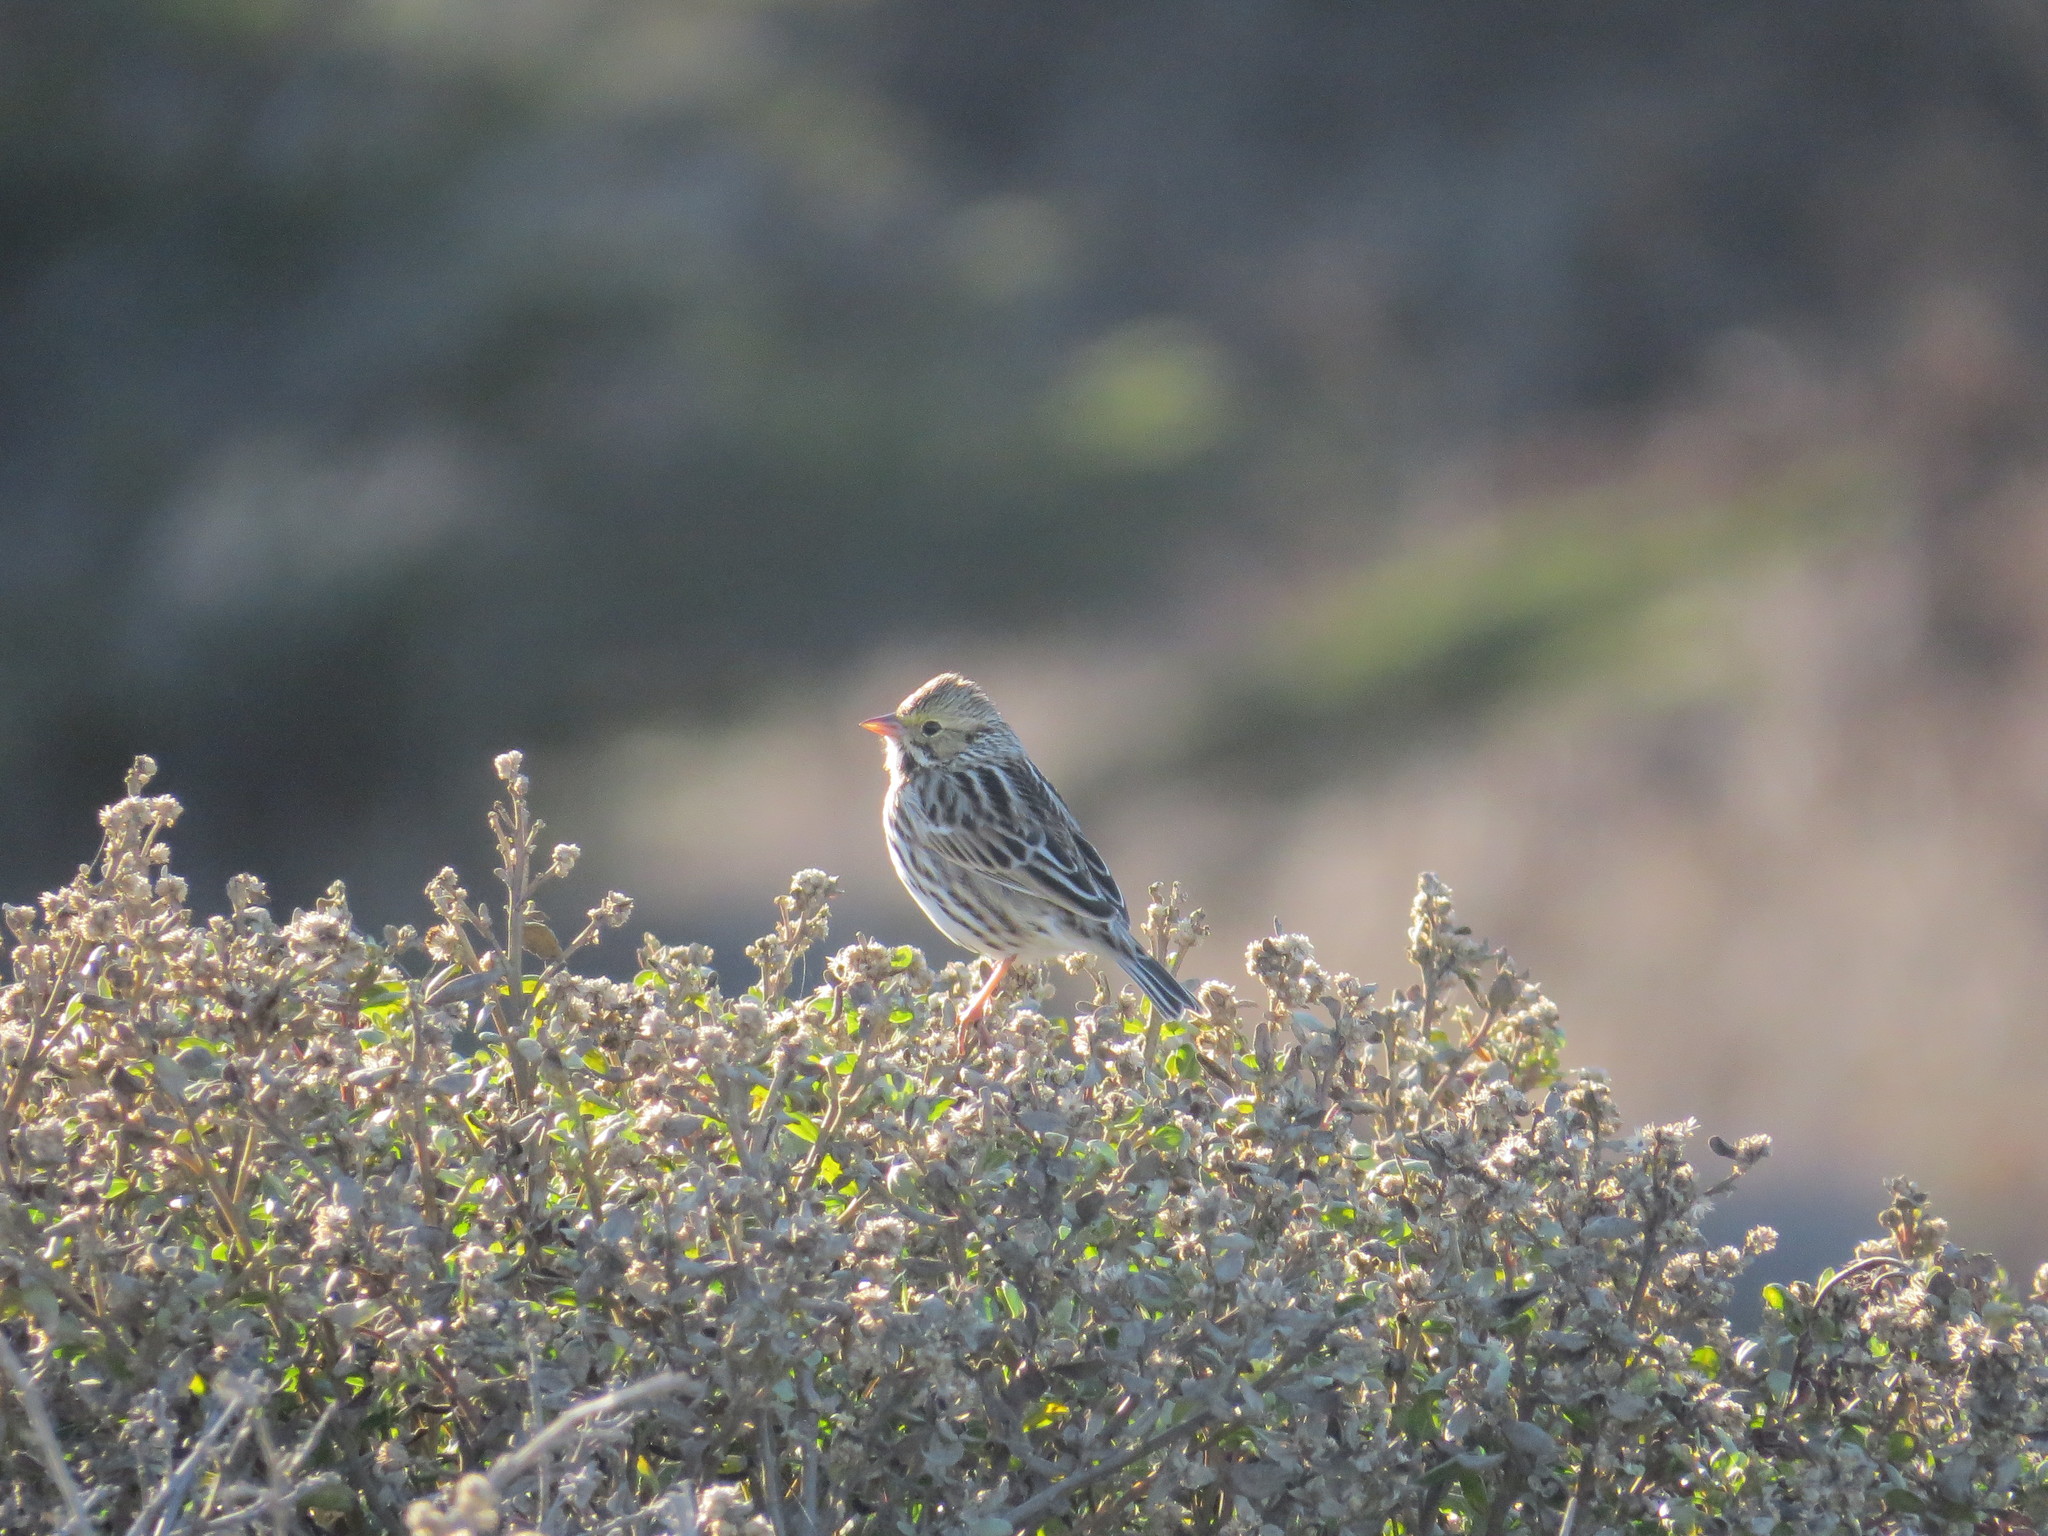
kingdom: Animalia
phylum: Chordata
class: Aves
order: Passeriformes
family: Passerellidae
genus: Passerculus
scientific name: Passerculus sandwichensis
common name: Savannah sparrow
